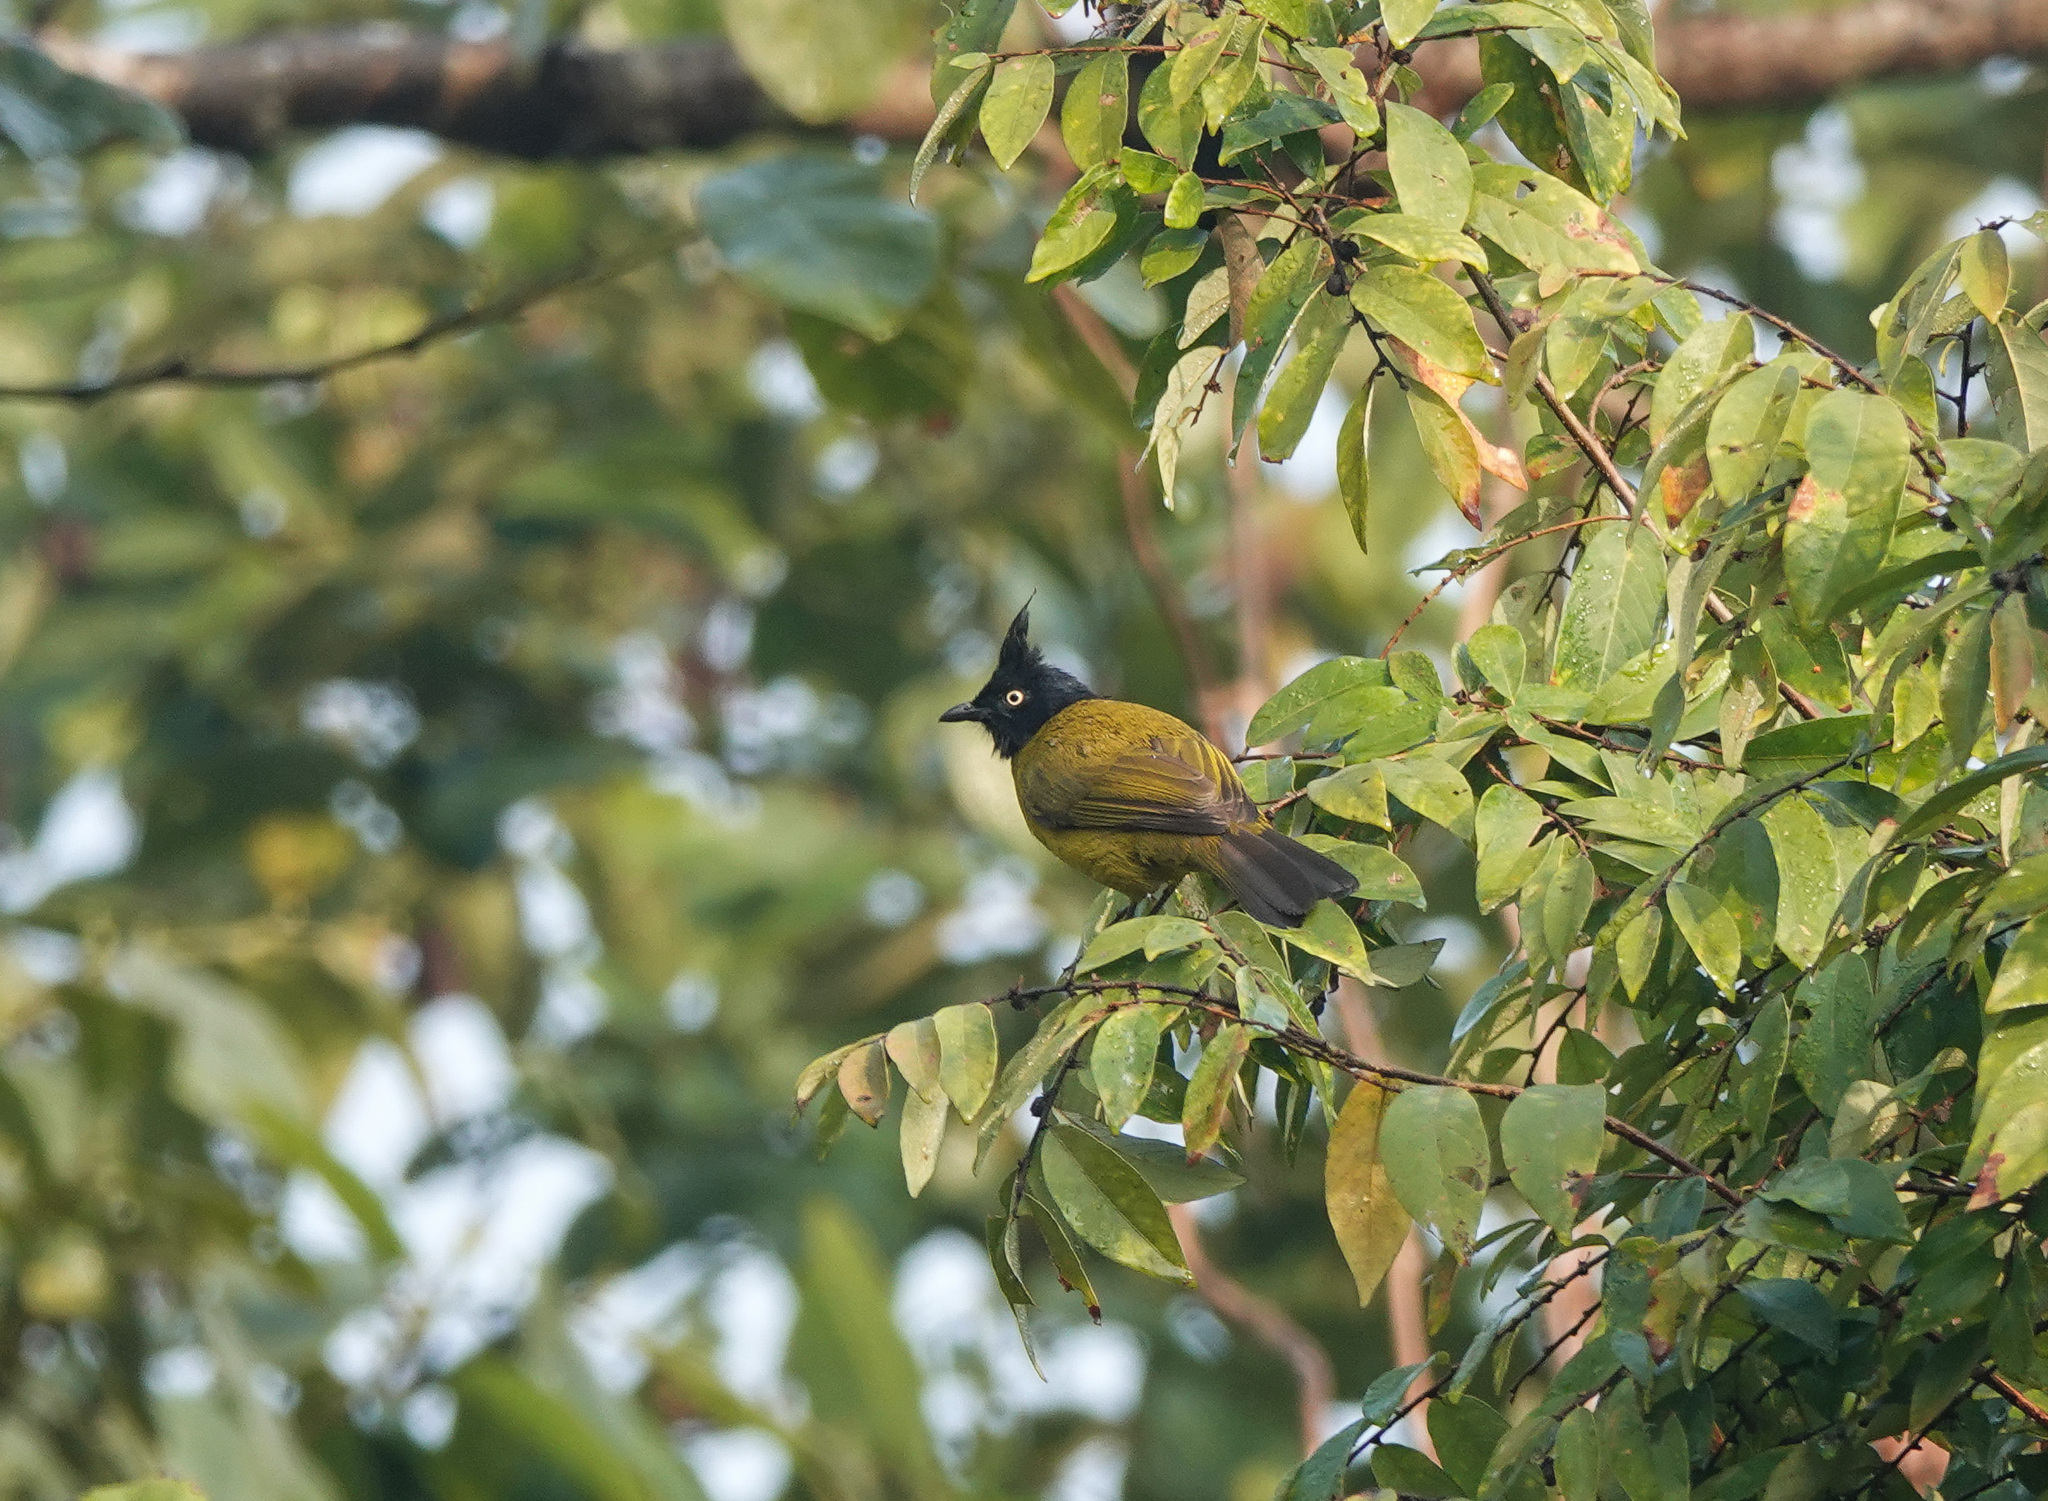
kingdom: Animalia
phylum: Chordata
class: Aves
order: Passeriformes
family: Pycnonotidae
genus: Pycnonotus
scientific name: Pycnonotus flaviventris
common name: Black-crested bulbul
